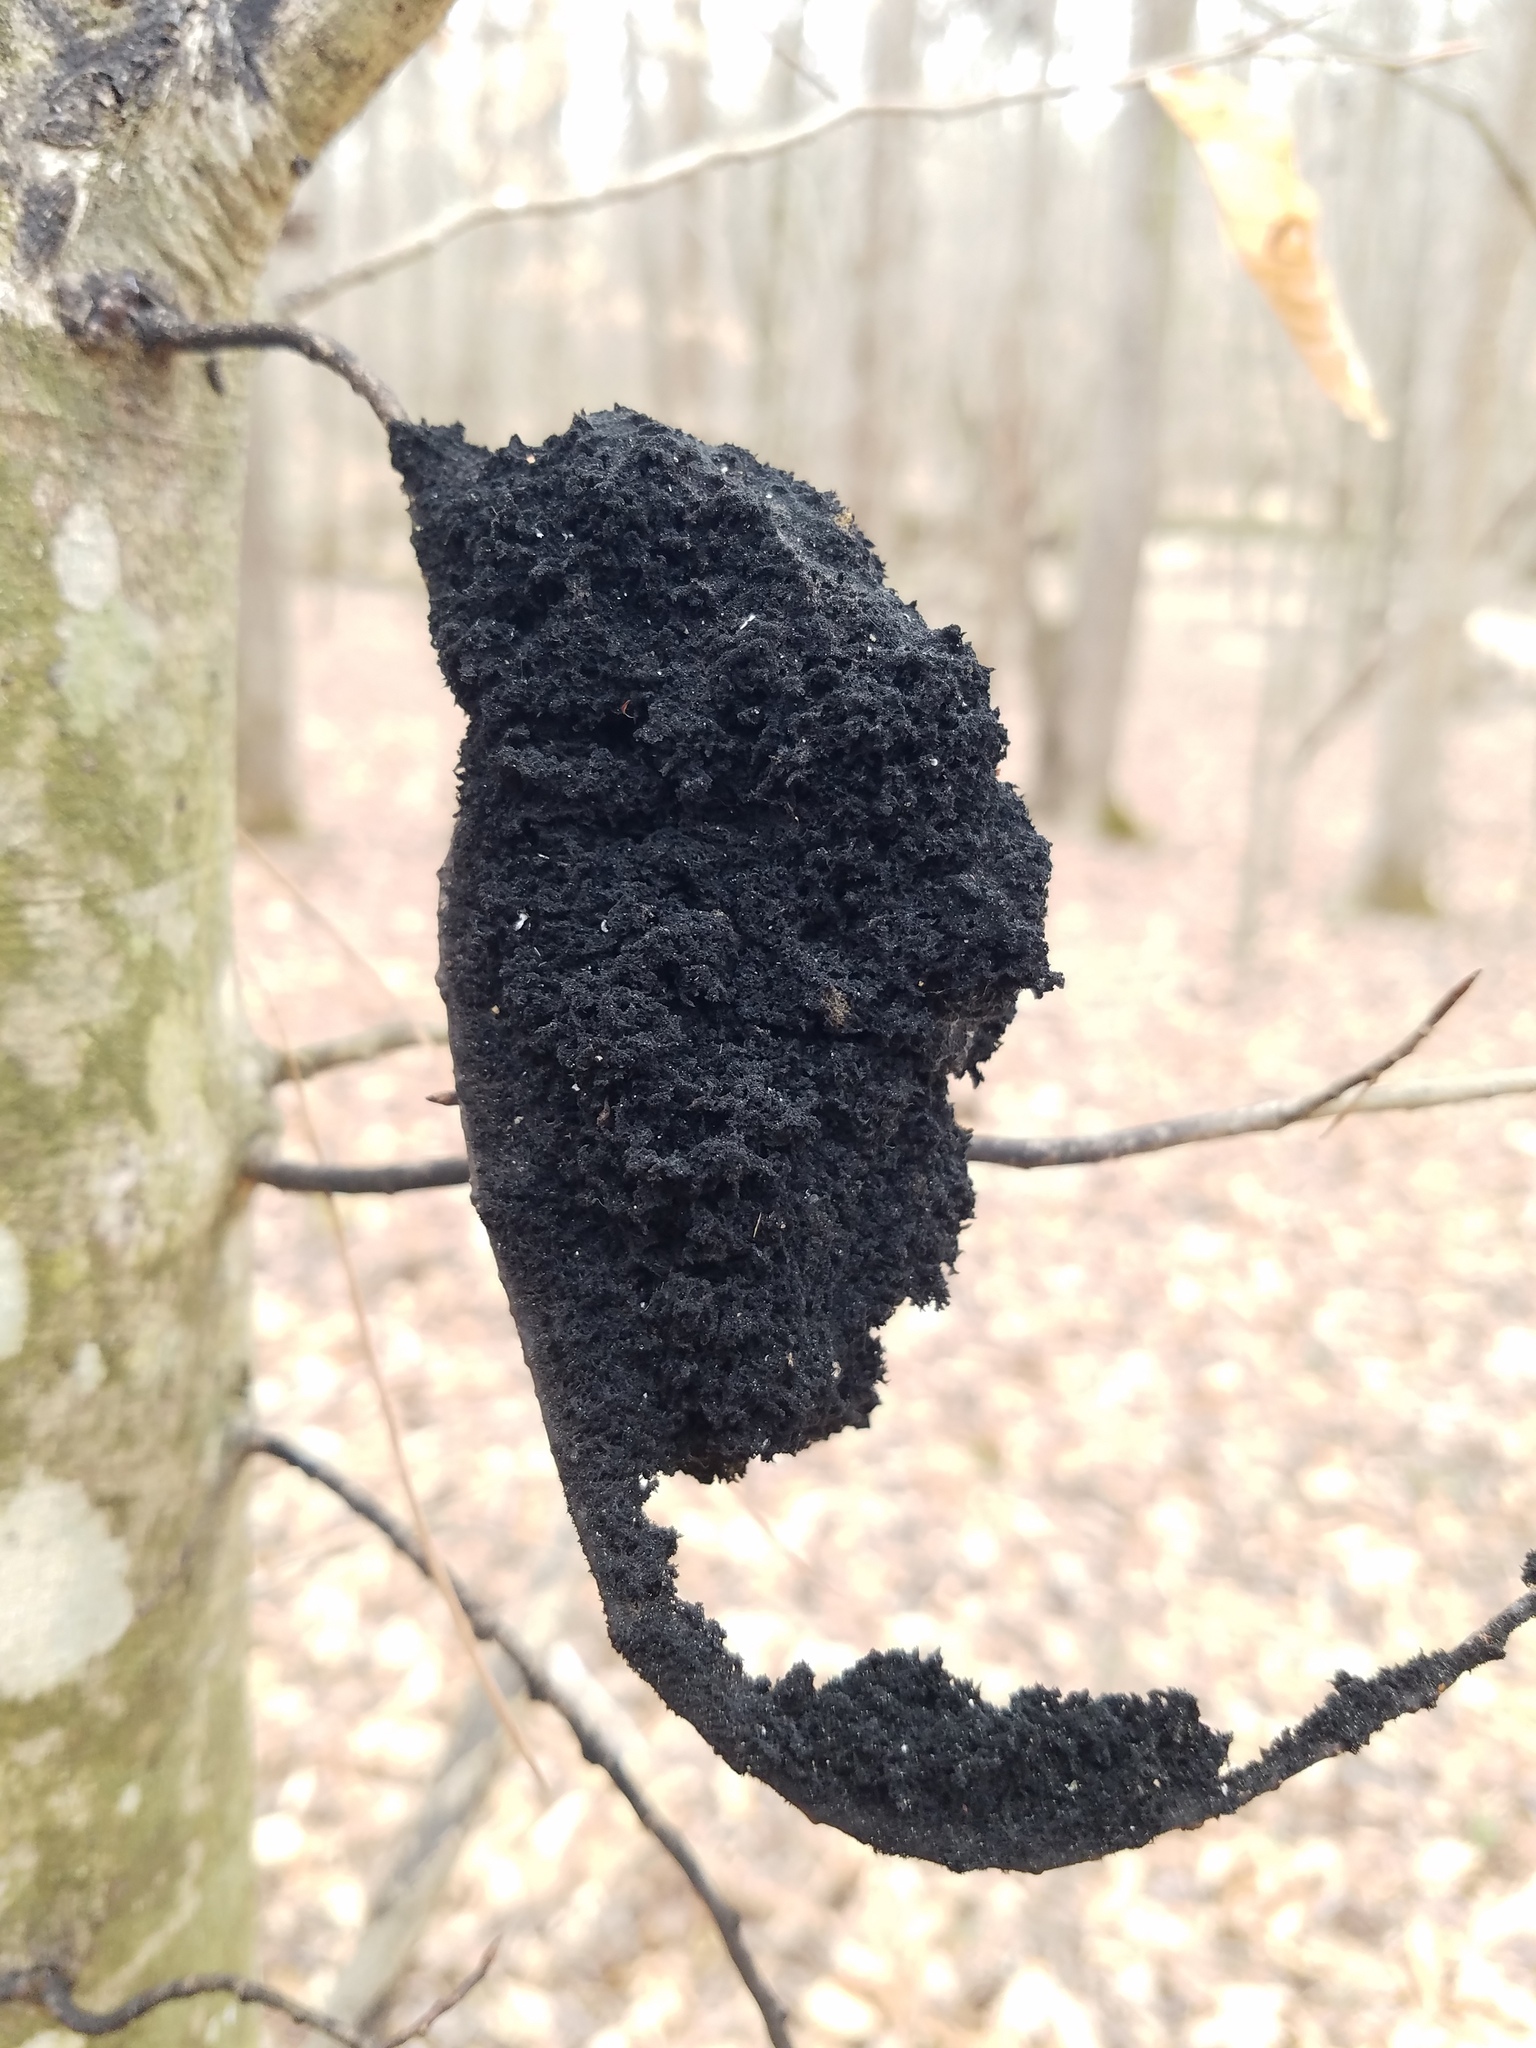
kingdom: Fungi
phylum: Ascomycota
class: Dothideomycetes
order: Capnodiales
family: Capnodiaceae
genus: Scorias
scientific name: Scorias spongiosa
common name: Black sooty mold
